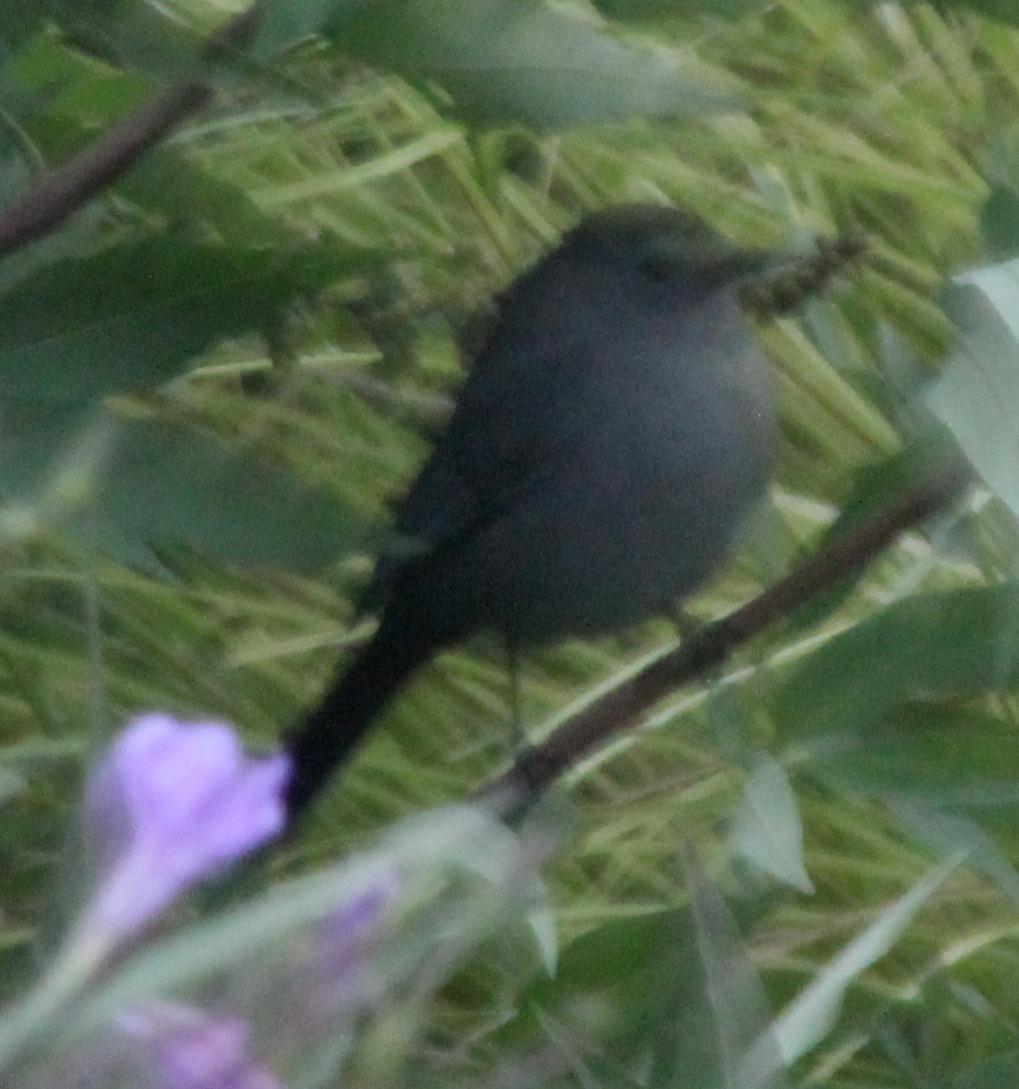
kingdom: Animalia
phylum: Chordata
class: Aves
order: Passeriformes
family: Mimidae
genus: Dumetella
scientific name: Dumetella carolinensis
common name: Gray catbird
